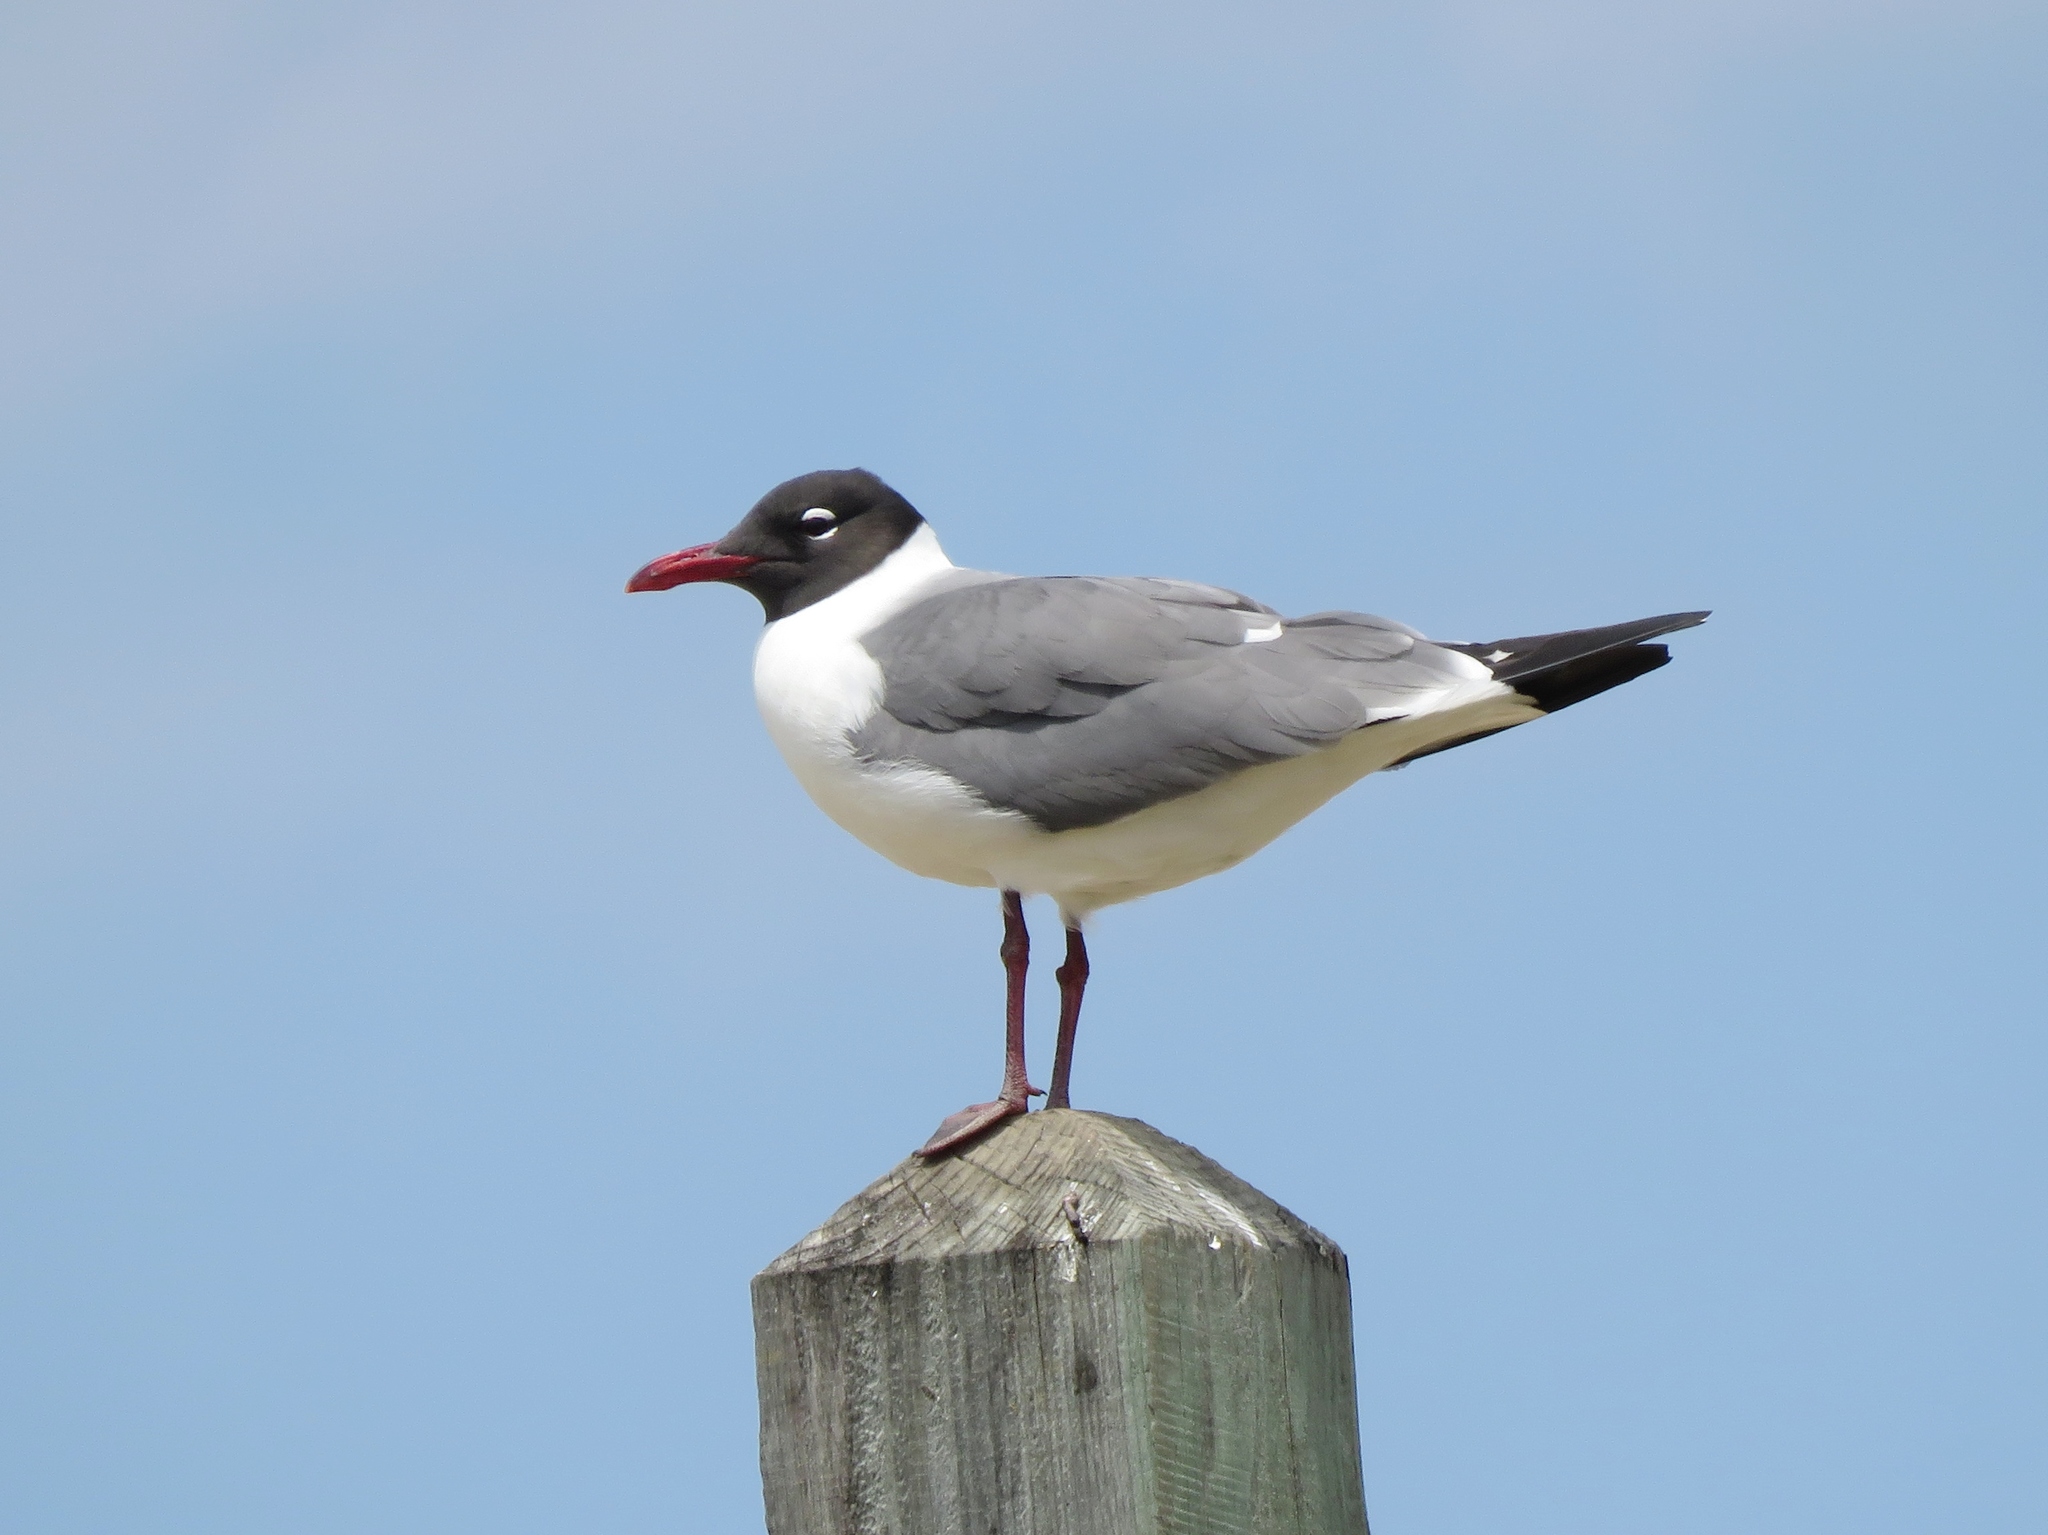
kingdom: Animalia
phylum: Chordata
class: Aves
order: Charadriiformes
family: Laridae
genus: Leucophaeus
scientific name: Leucophaeus atricilla
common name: Laughing gull
